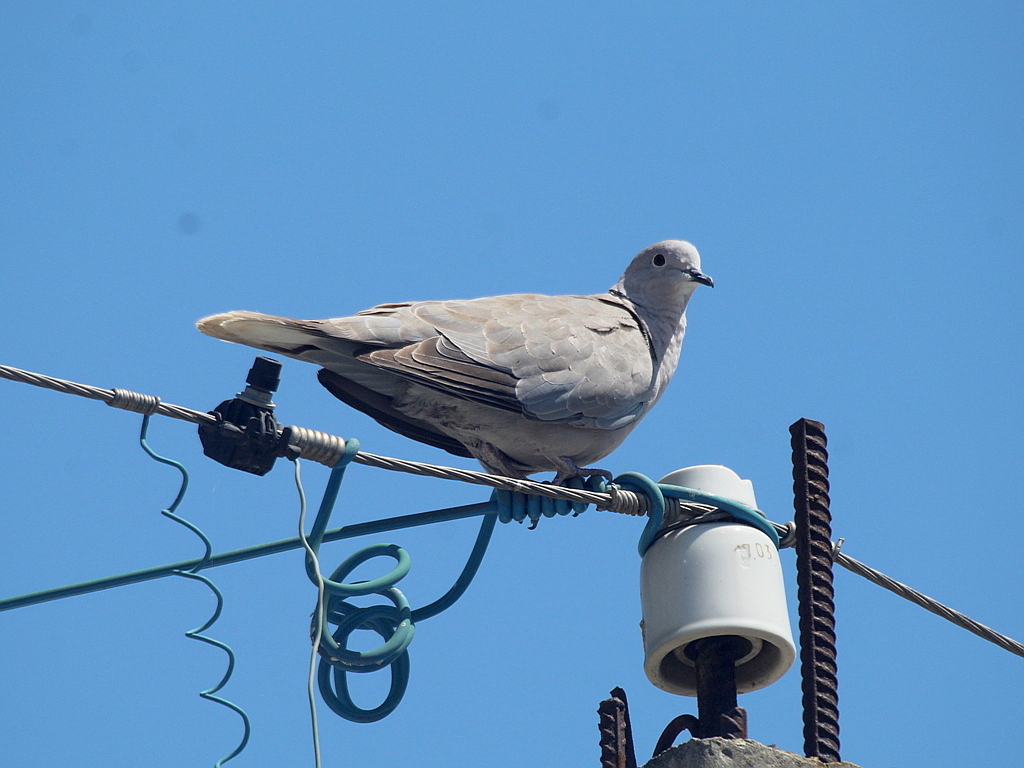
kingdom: Animalia
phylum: Chordata
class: Aves
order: Columbiformes
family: Columbidae
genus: Streptopelia
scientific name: Streptopelia decaocto
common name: Eurasian collared dove
